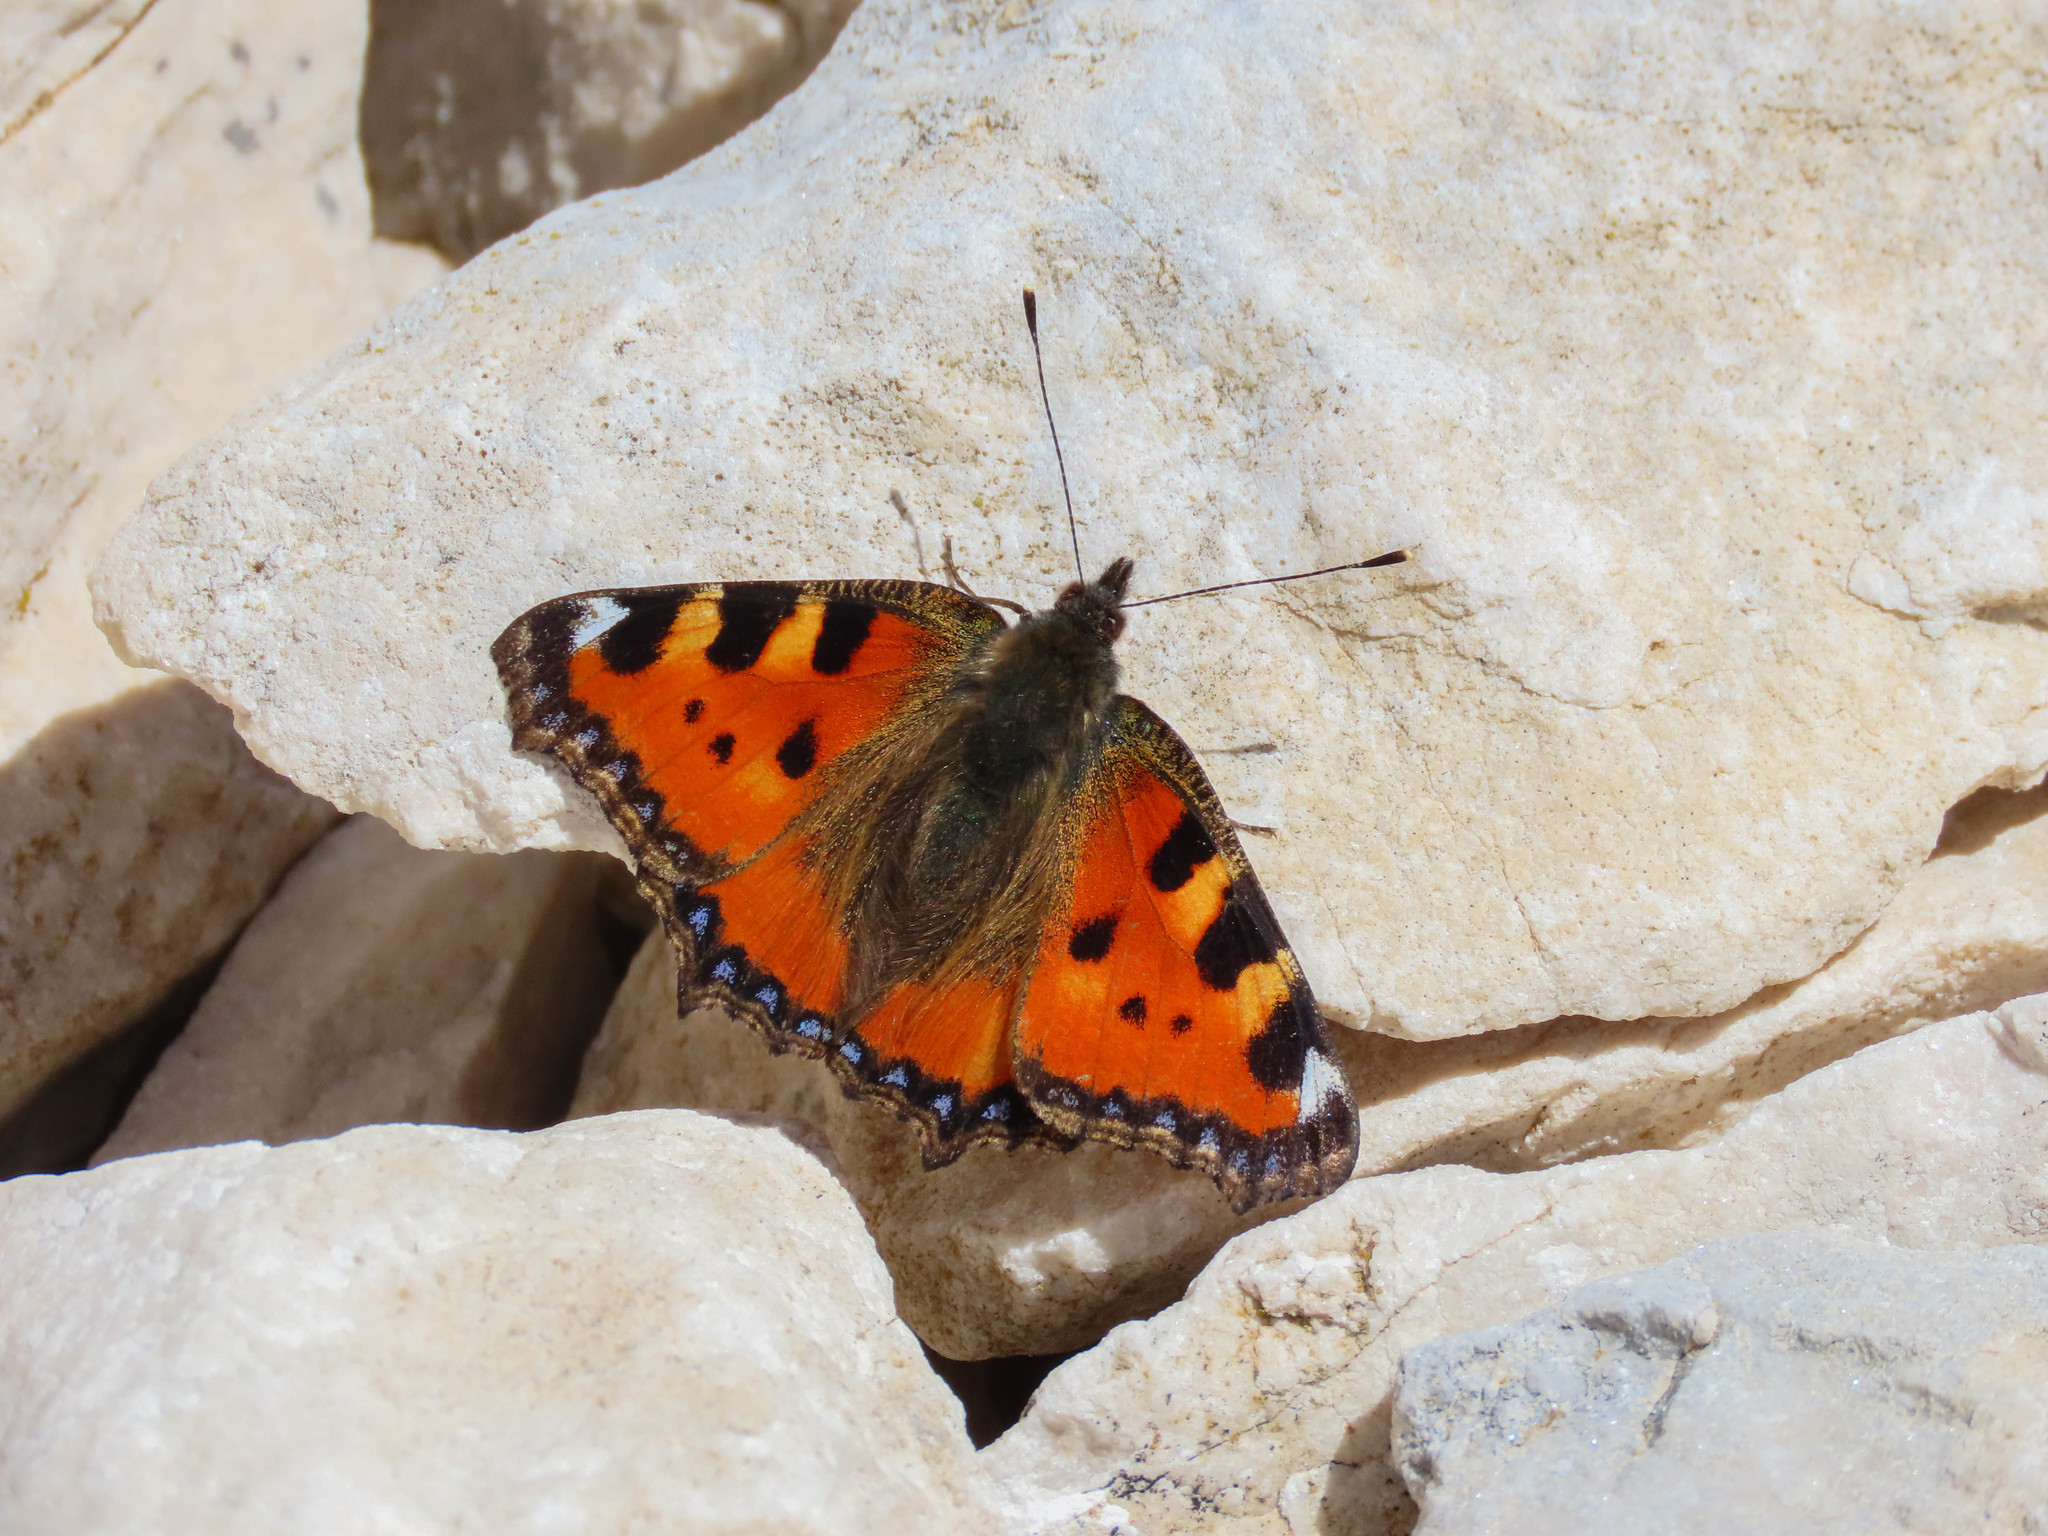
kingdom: Animalia
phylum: Arthropoda
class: Insecta
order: Lepidoptera
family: Nymphalidae
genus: Aglais
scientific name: Aglais urticae
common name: Small tortoiseshell
